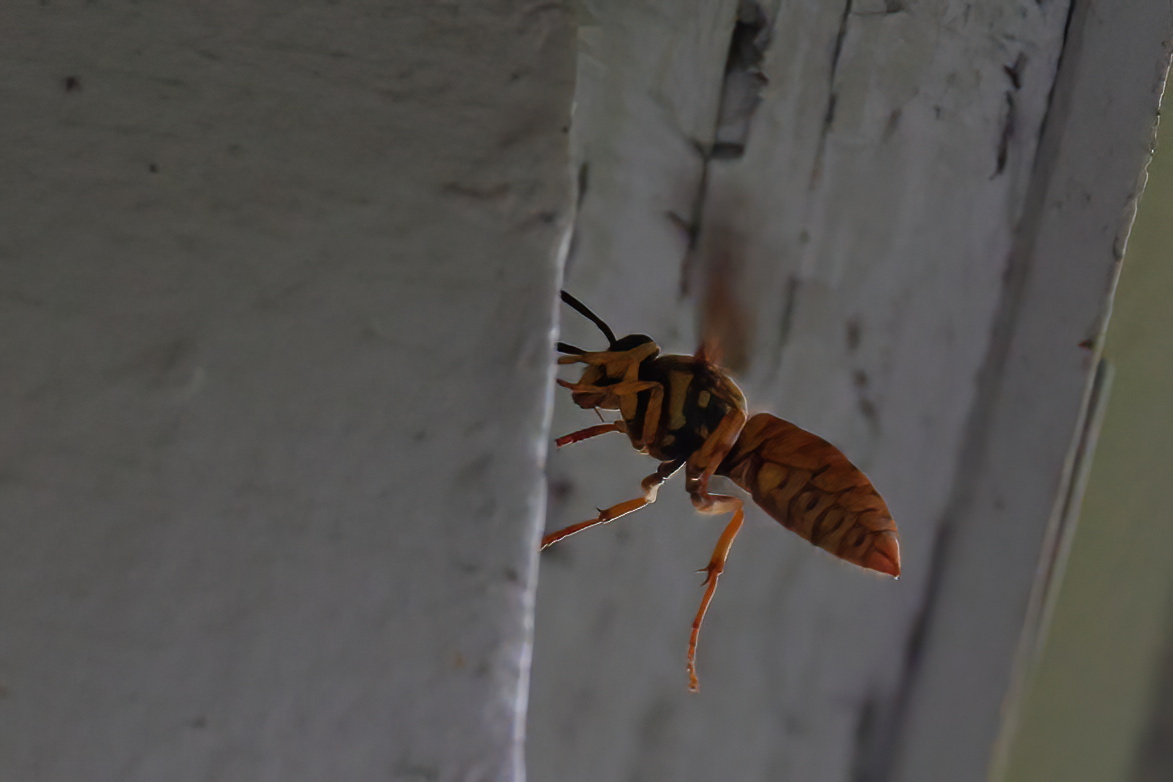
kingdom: Animalia
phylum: Arthropoda
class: Insecta
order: Hymenoptera
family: Vespidae
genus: Vespula
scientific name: Vespula squamosa
